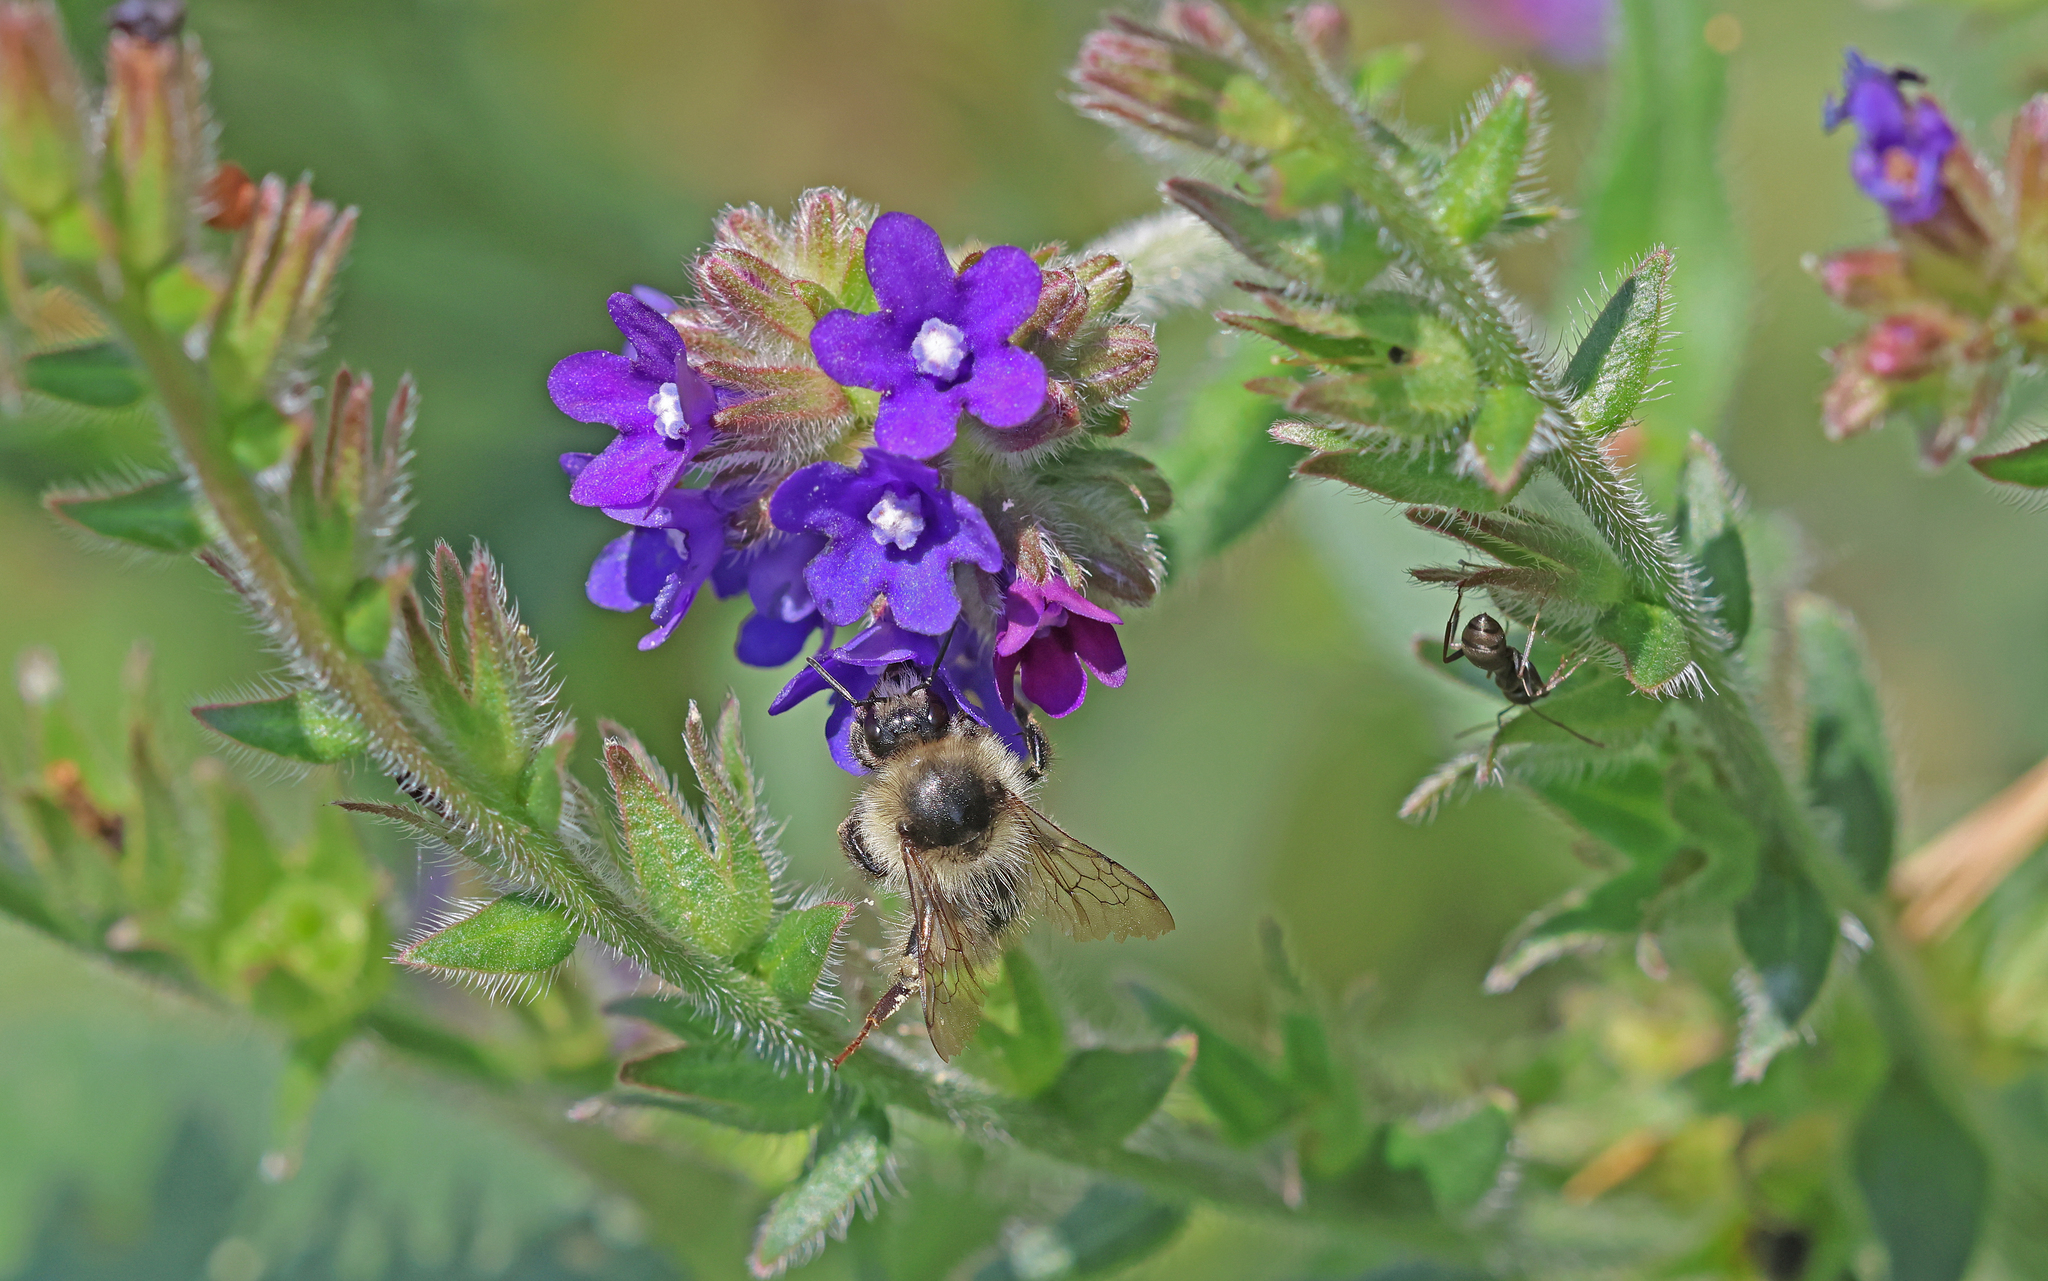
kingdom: Animalia
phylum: Arthropoda
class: Insecta
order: Hymenoptera
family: Apidae
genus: Bombus
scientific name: Bombus sylvarum
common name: Shrill carder bee
